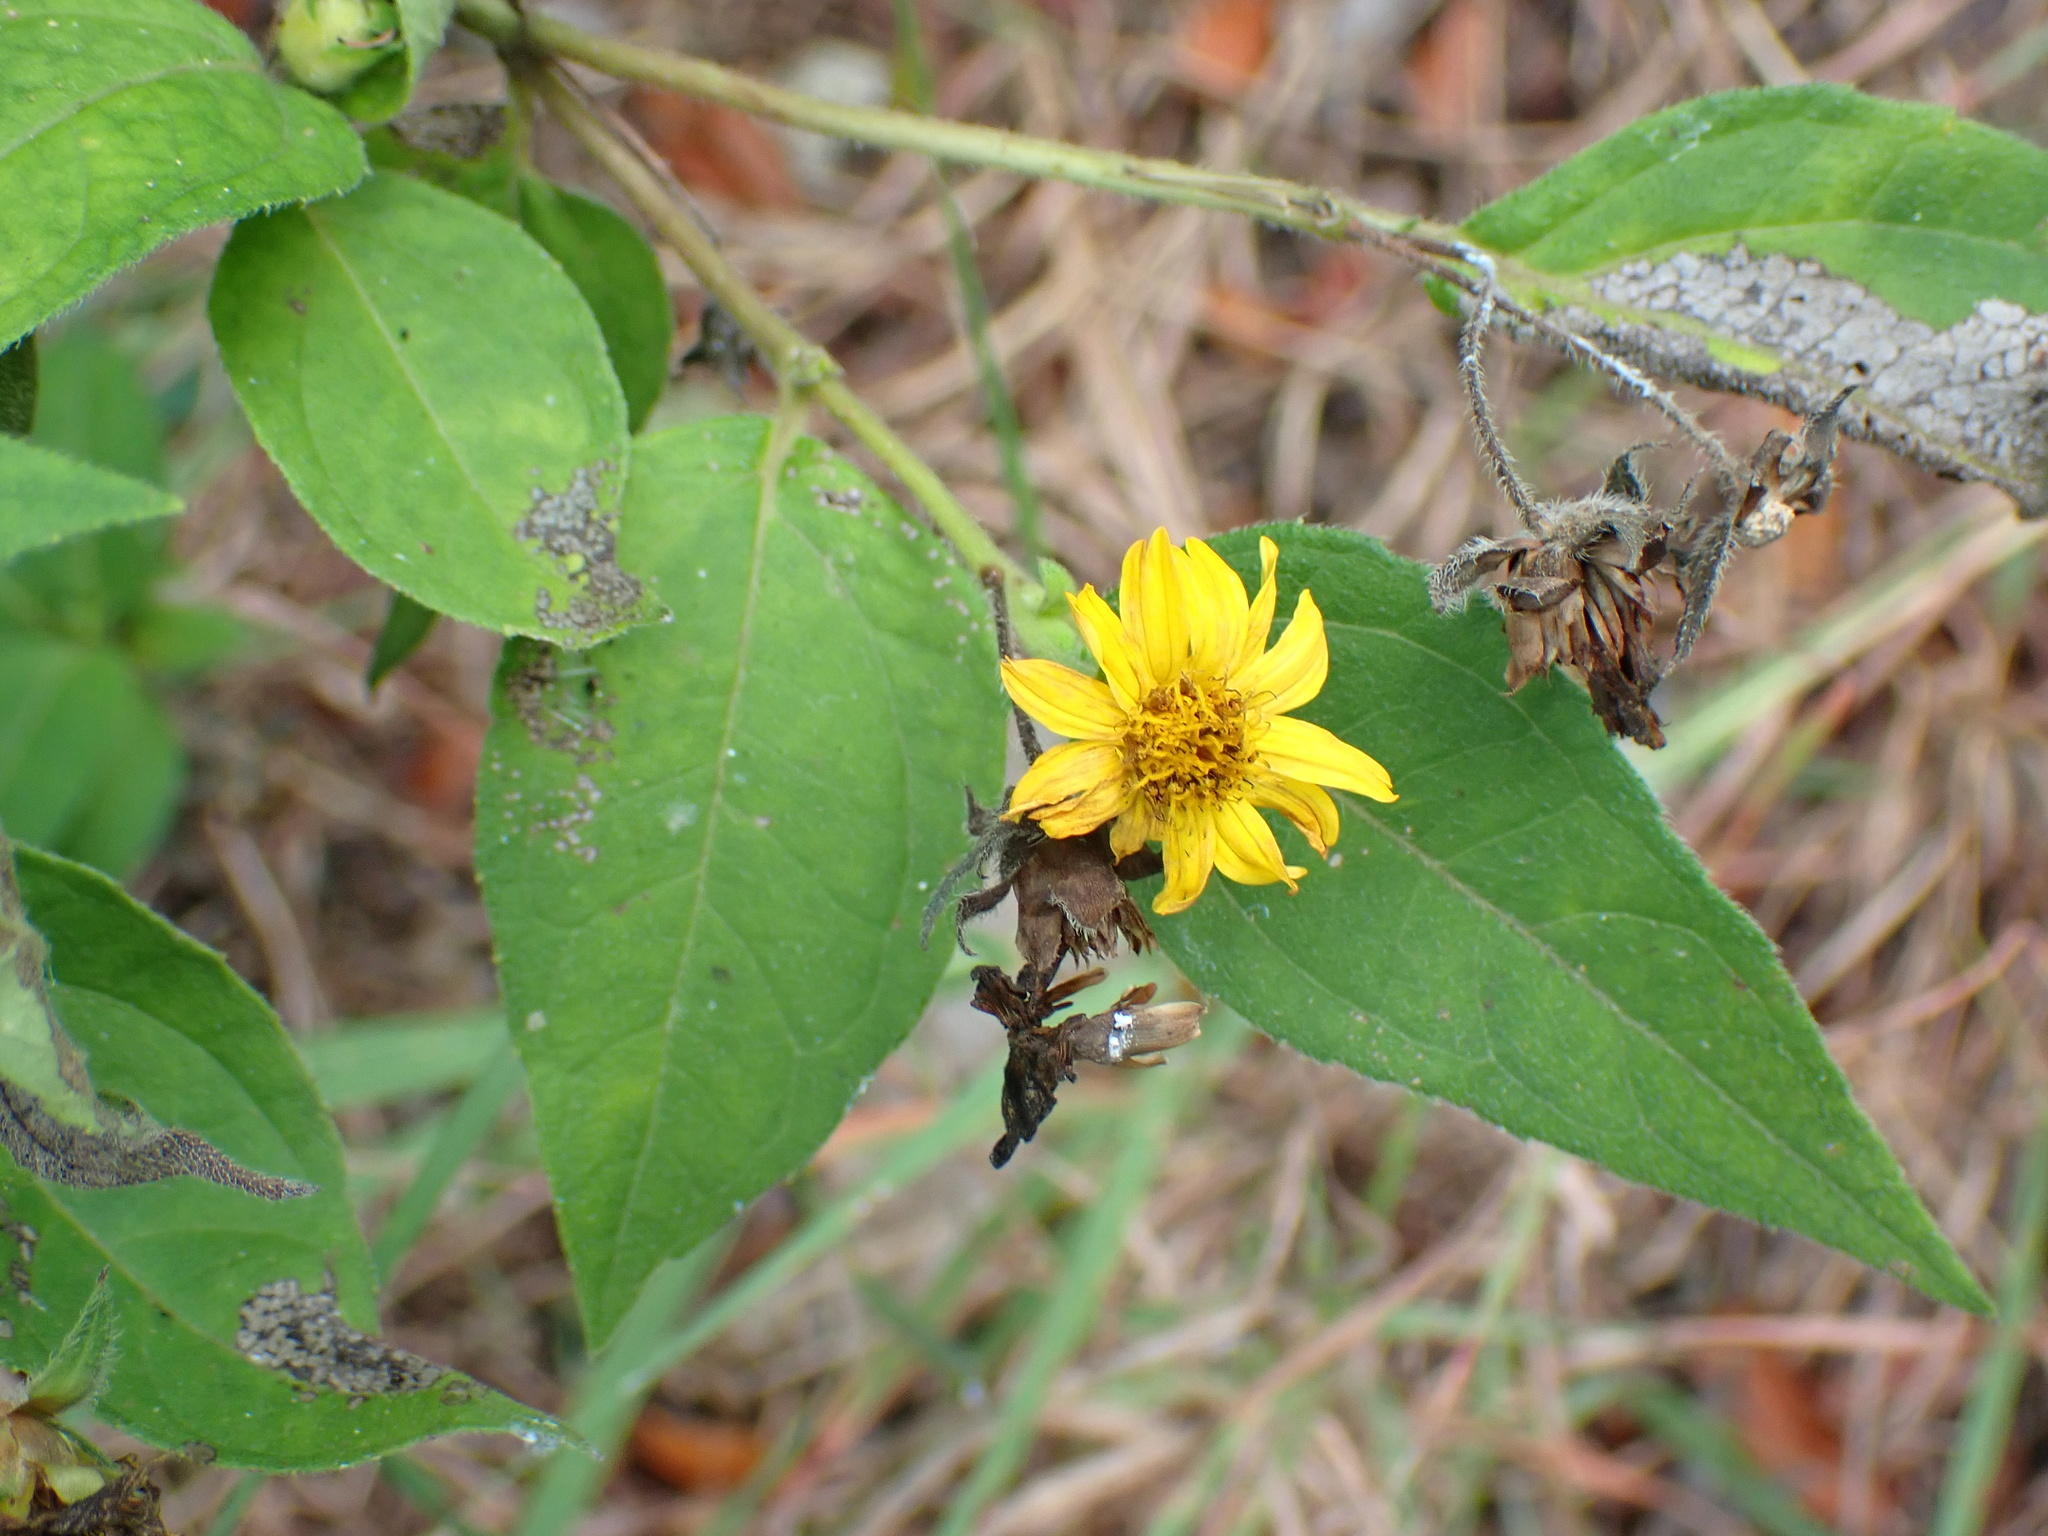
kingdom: Plantae
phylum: Tracheophyta
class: Magnoliopsida
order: Asterales
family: Asteraceae
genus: Wedelia
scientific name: Wedelia calycina
